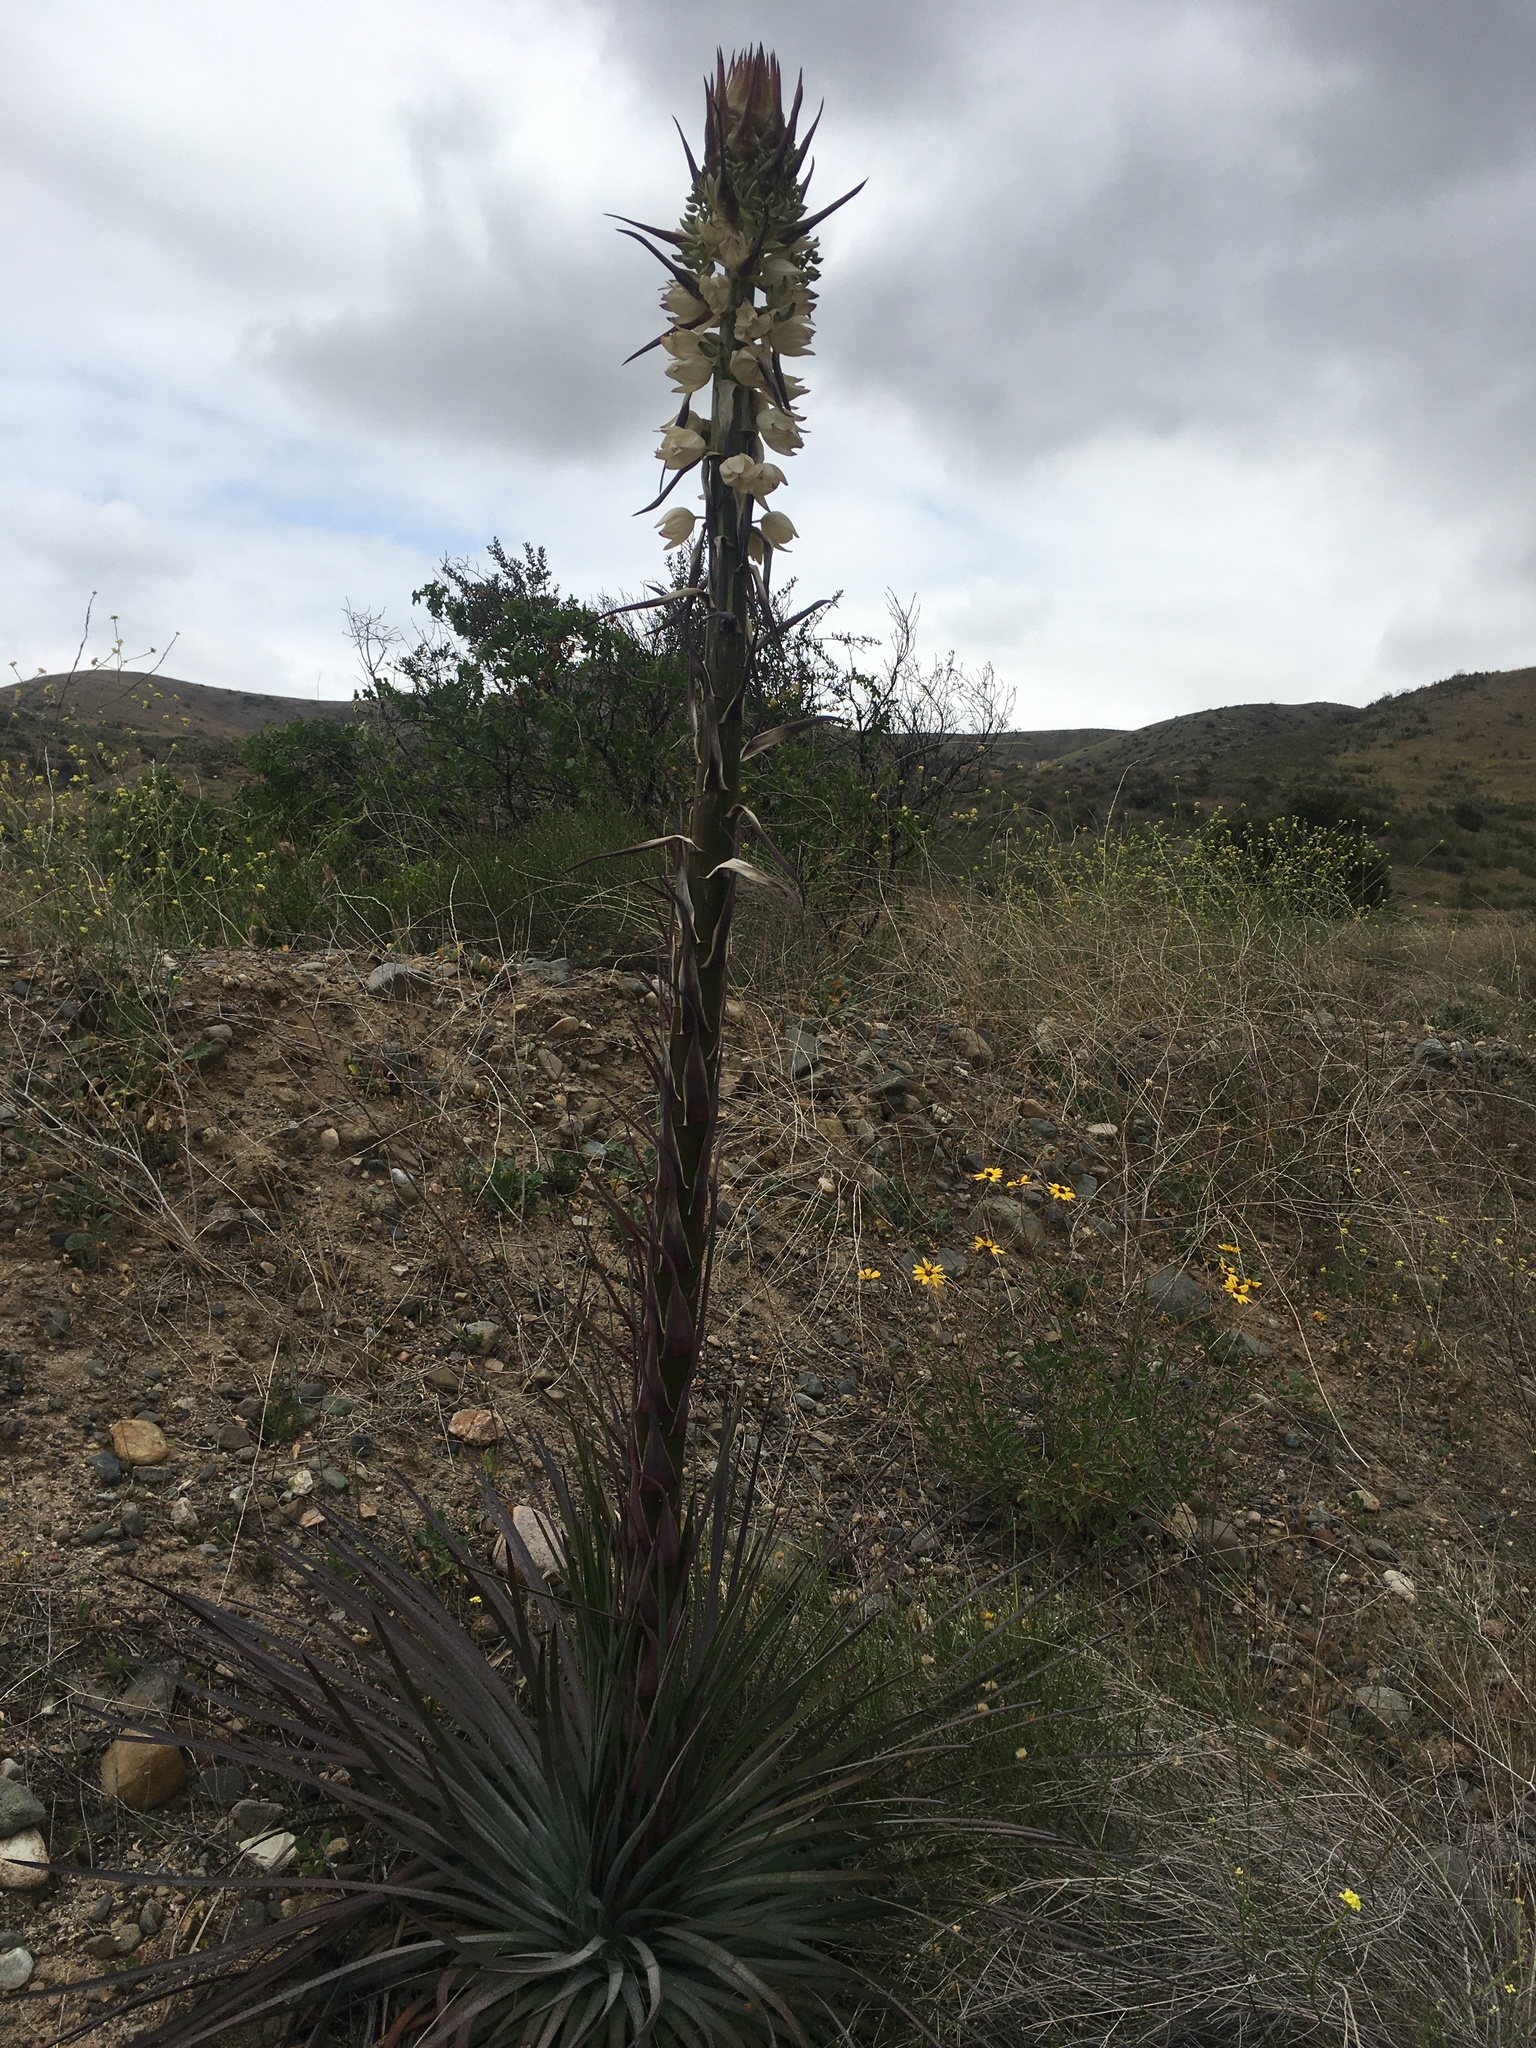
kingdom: Plantae
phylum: Tracheophyta
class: Liliopsida
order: Asparagales
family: Asparagaceae
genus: Hesperoyucca
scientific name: Hesperoyucca whipplei
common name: Our lord's-candle
